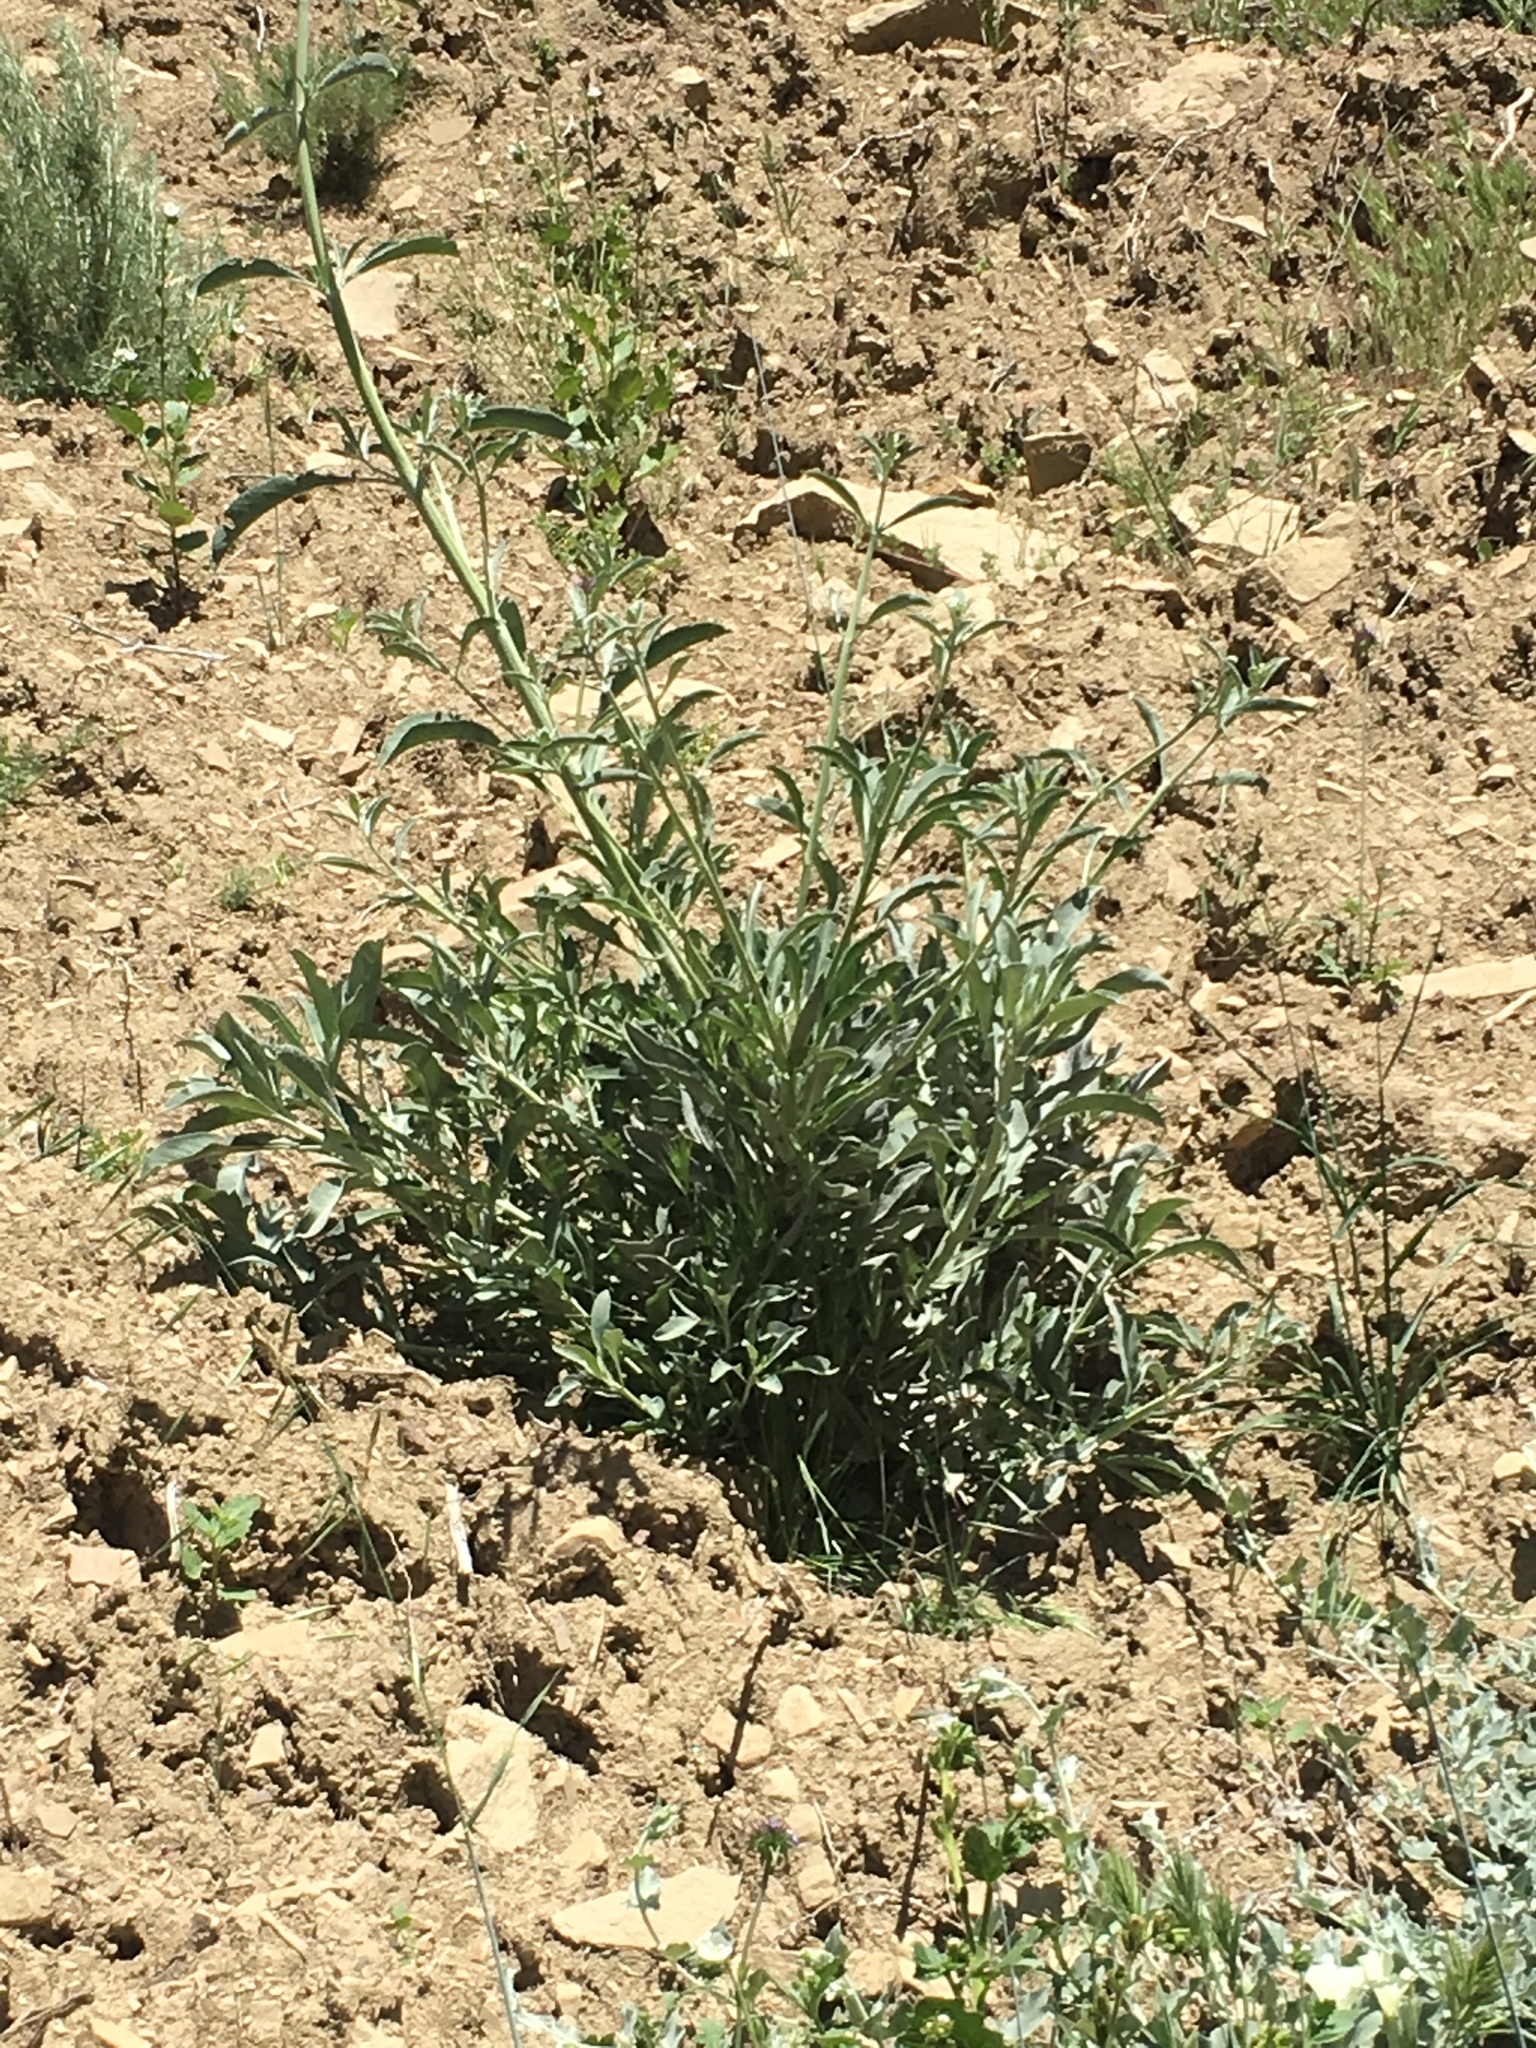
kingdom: Plantae
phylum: Tracheophyta
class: Magnoliopsida
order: Lamiales
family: Lamiaceae
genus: Salvia
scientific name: Salvia apiana
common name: White sage
